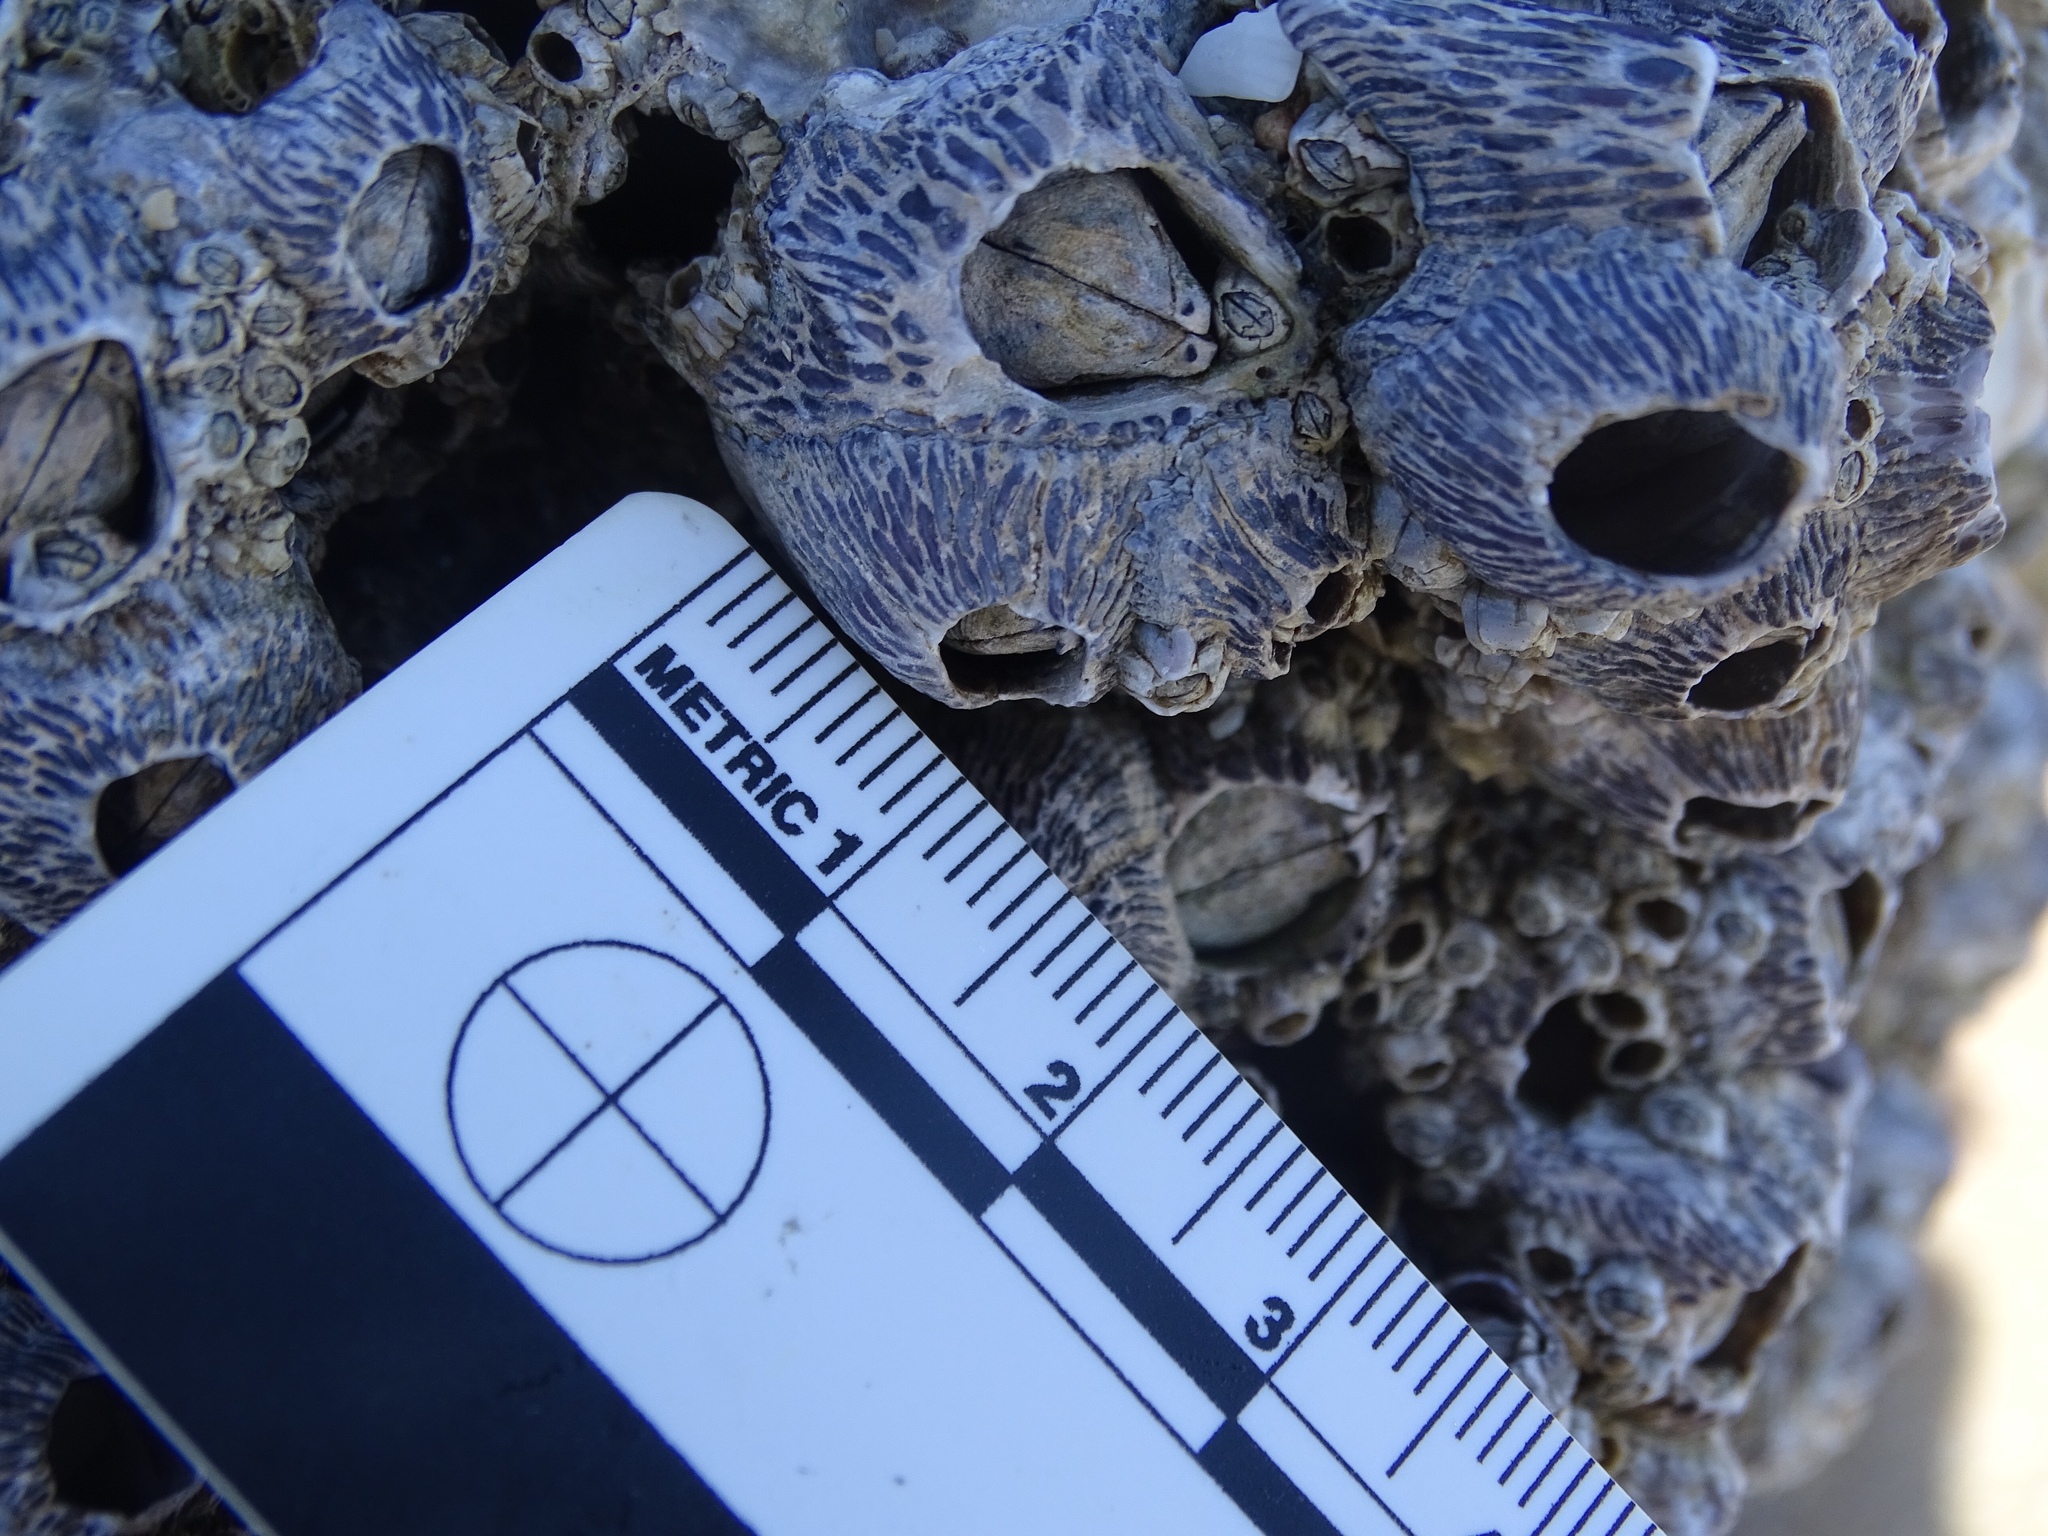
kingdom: Animalia
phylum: Arthropoda
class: Maxillopoda
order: Sessilia
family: Tetraclitidae
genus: Tetraclita
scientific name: Tetraclita stalactifera
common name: Ribbed barnacle
